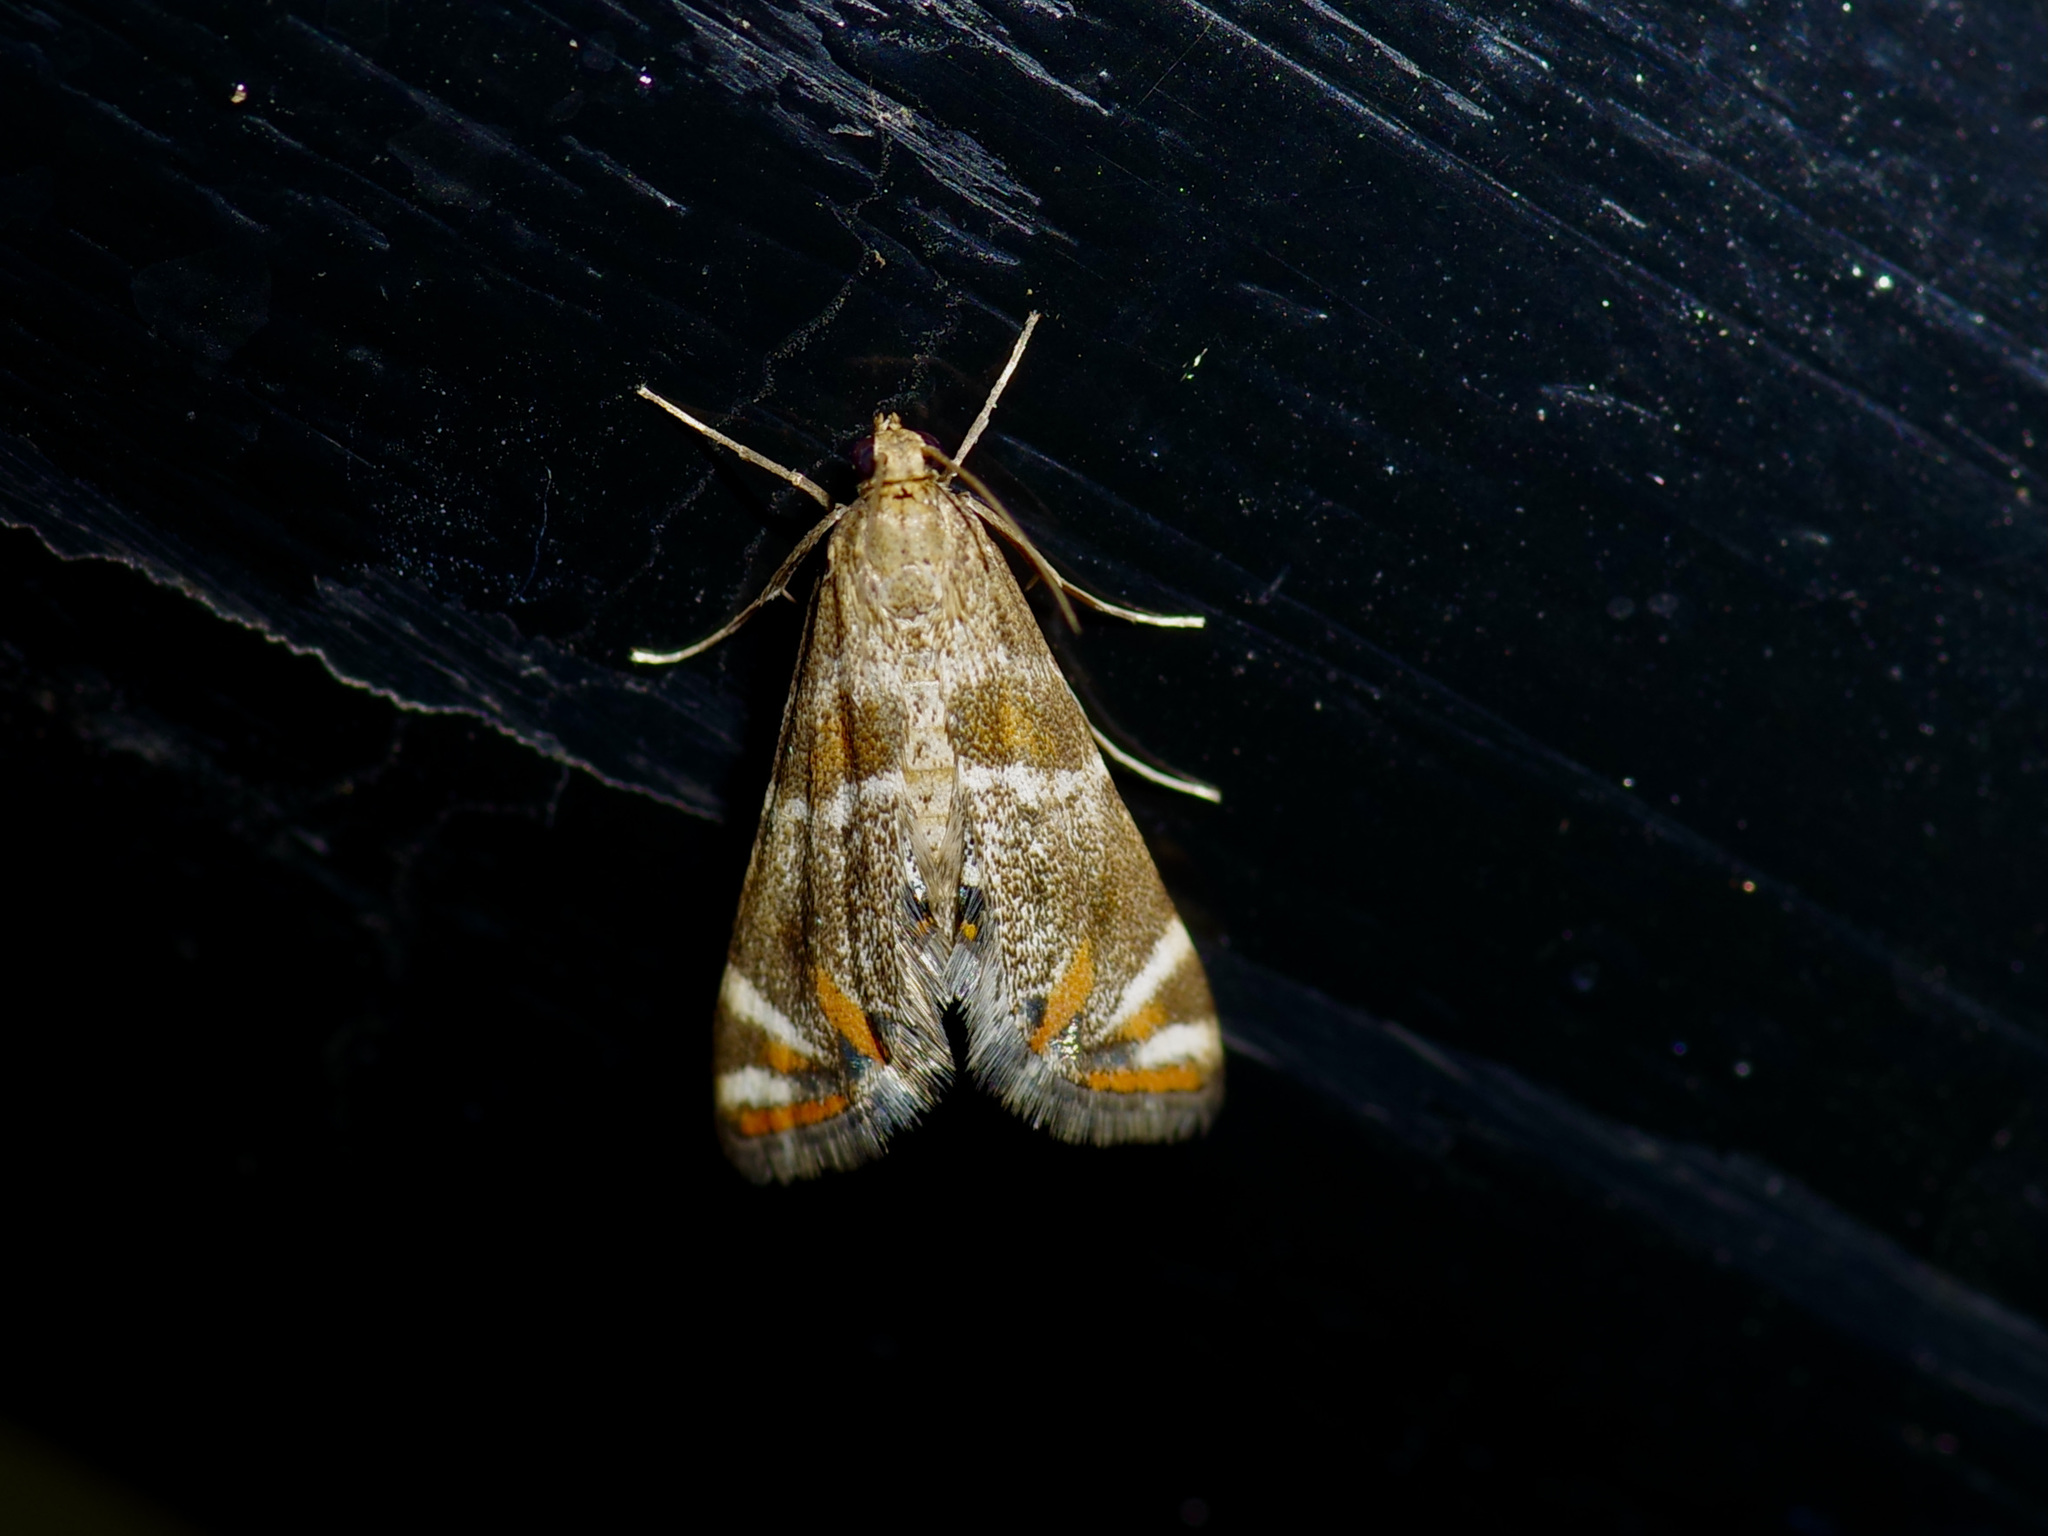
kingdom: Animalia
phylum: Arthropoda
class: Insecta
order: Lepidoptera
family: Crambidae
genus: Petrophila
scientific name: Petrophila jaliscalis
